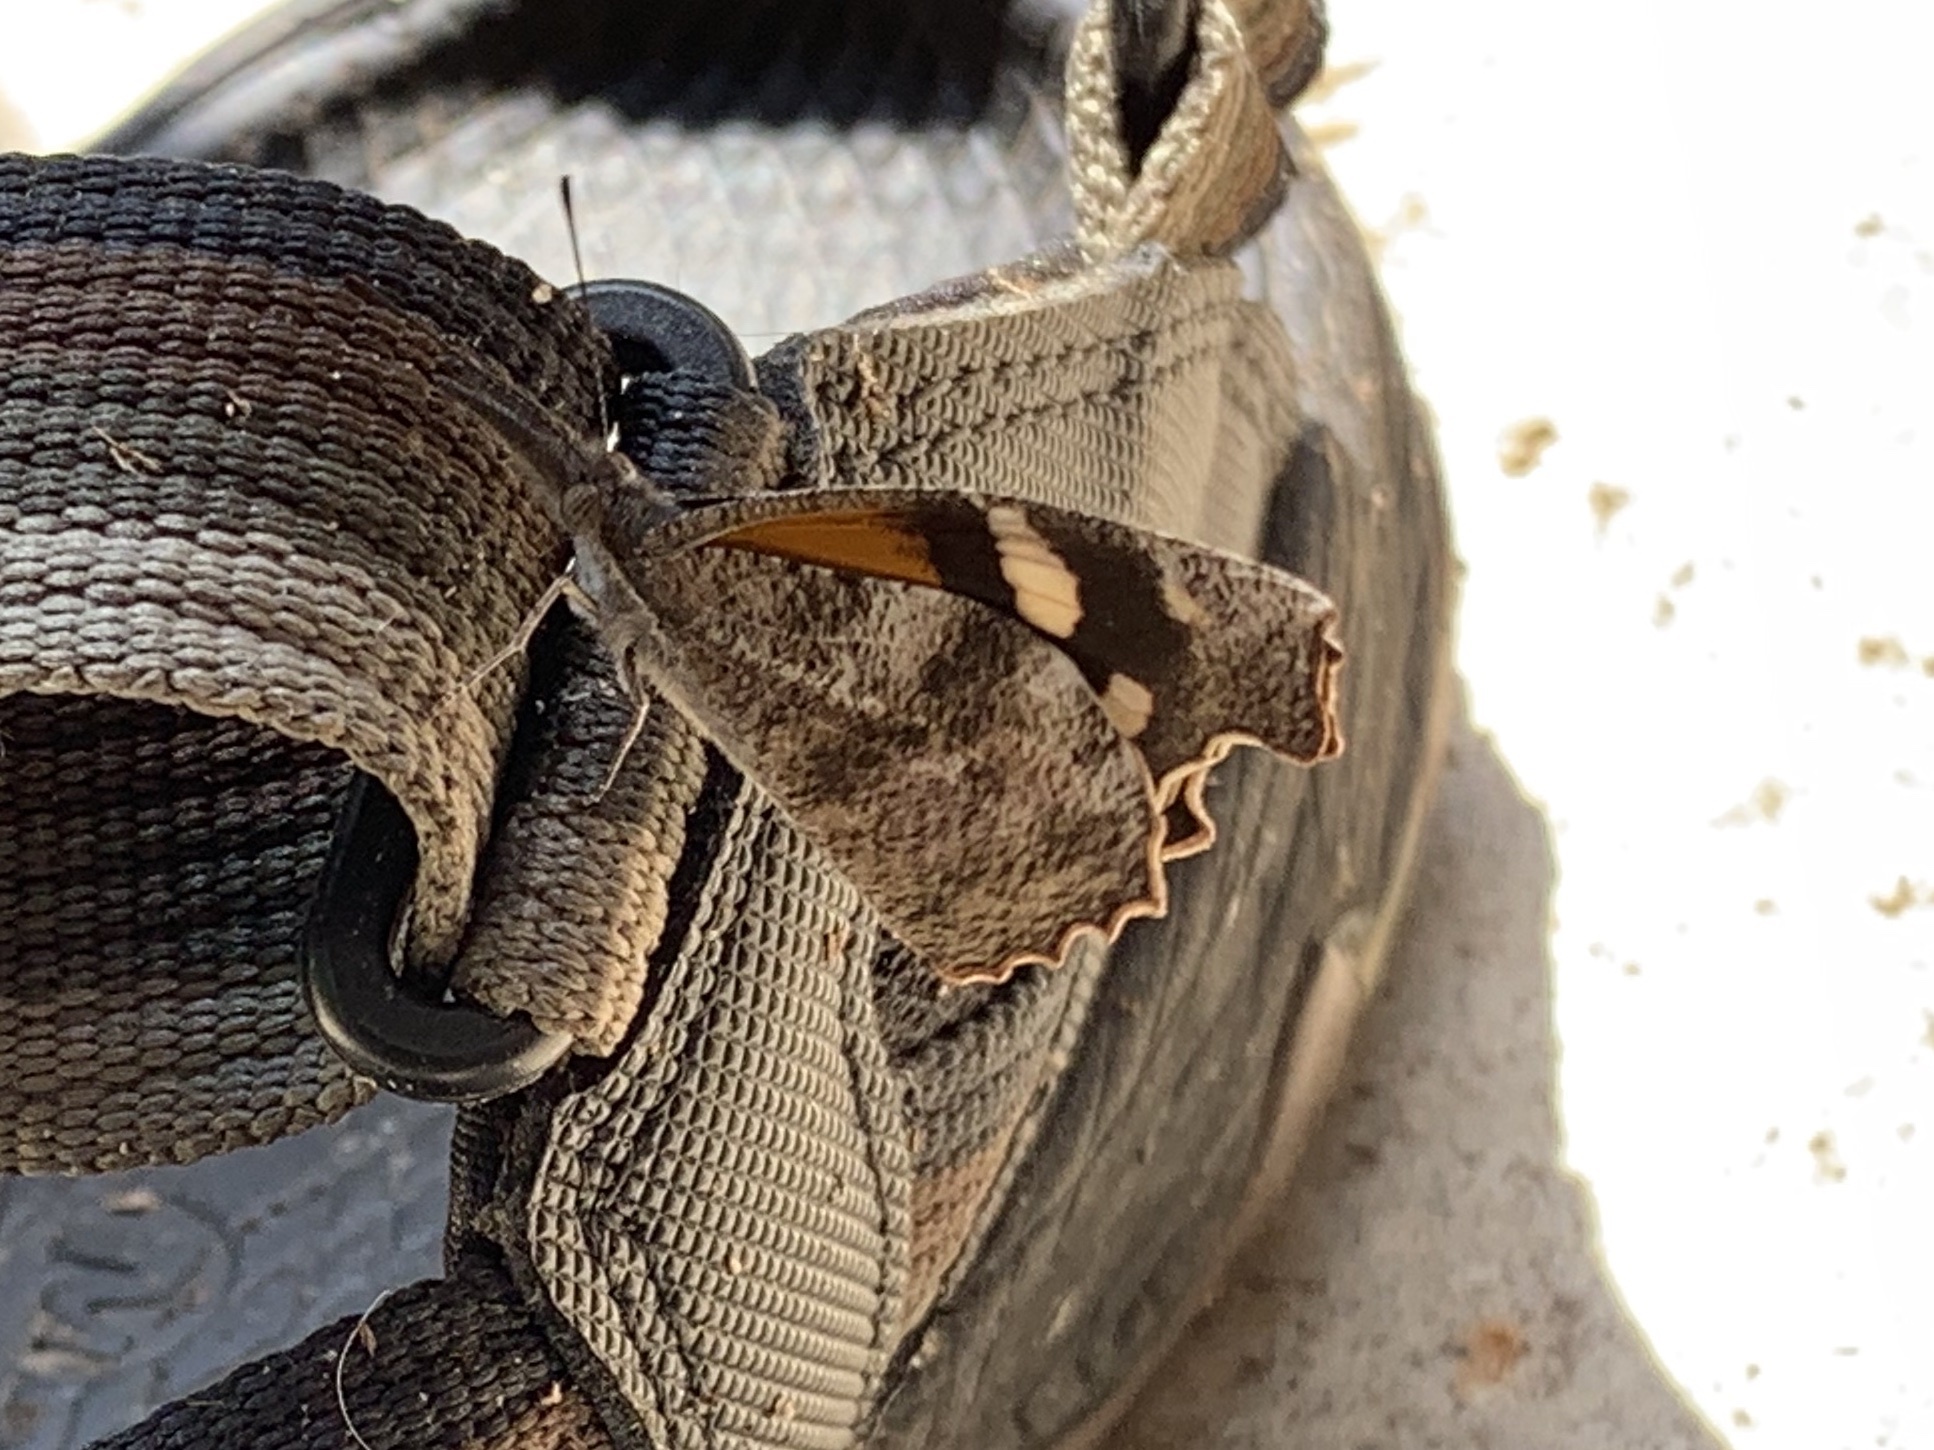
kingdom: Animalia
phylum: Arthropoda
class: Insecta
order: Lepidoptera
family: Nymphalidae
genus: Libytheana
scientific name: Libytheana carinenta
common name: American snout
